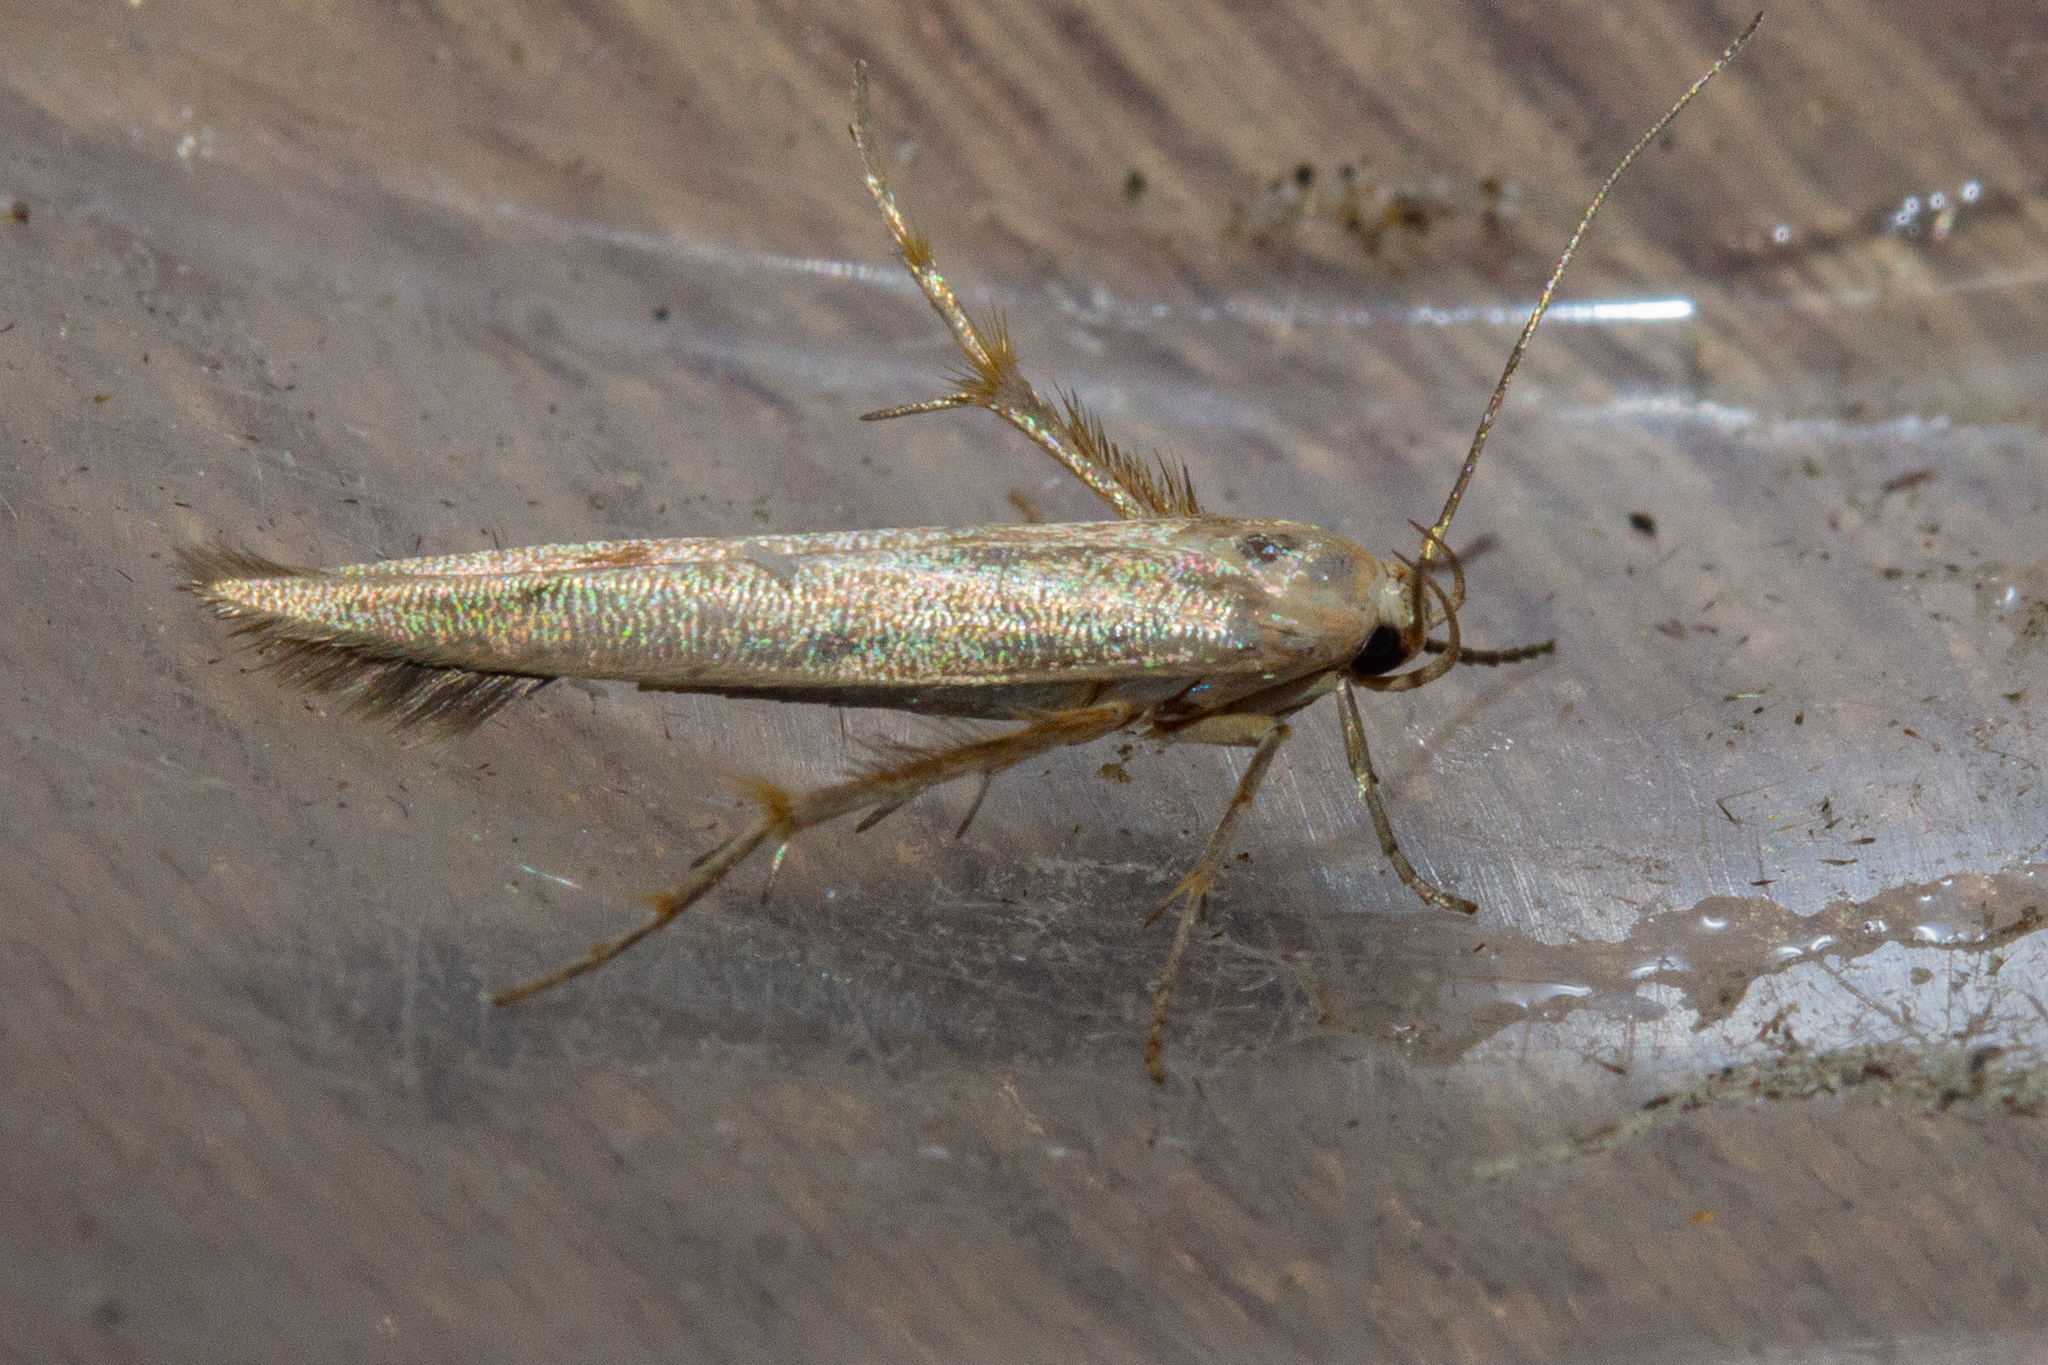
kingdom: Animalia
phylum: Arthropoda
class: Insecta
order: Lepidoptera
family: Stathmopodidae
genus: Stathmopoda
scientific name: Stathmopoda horticola
